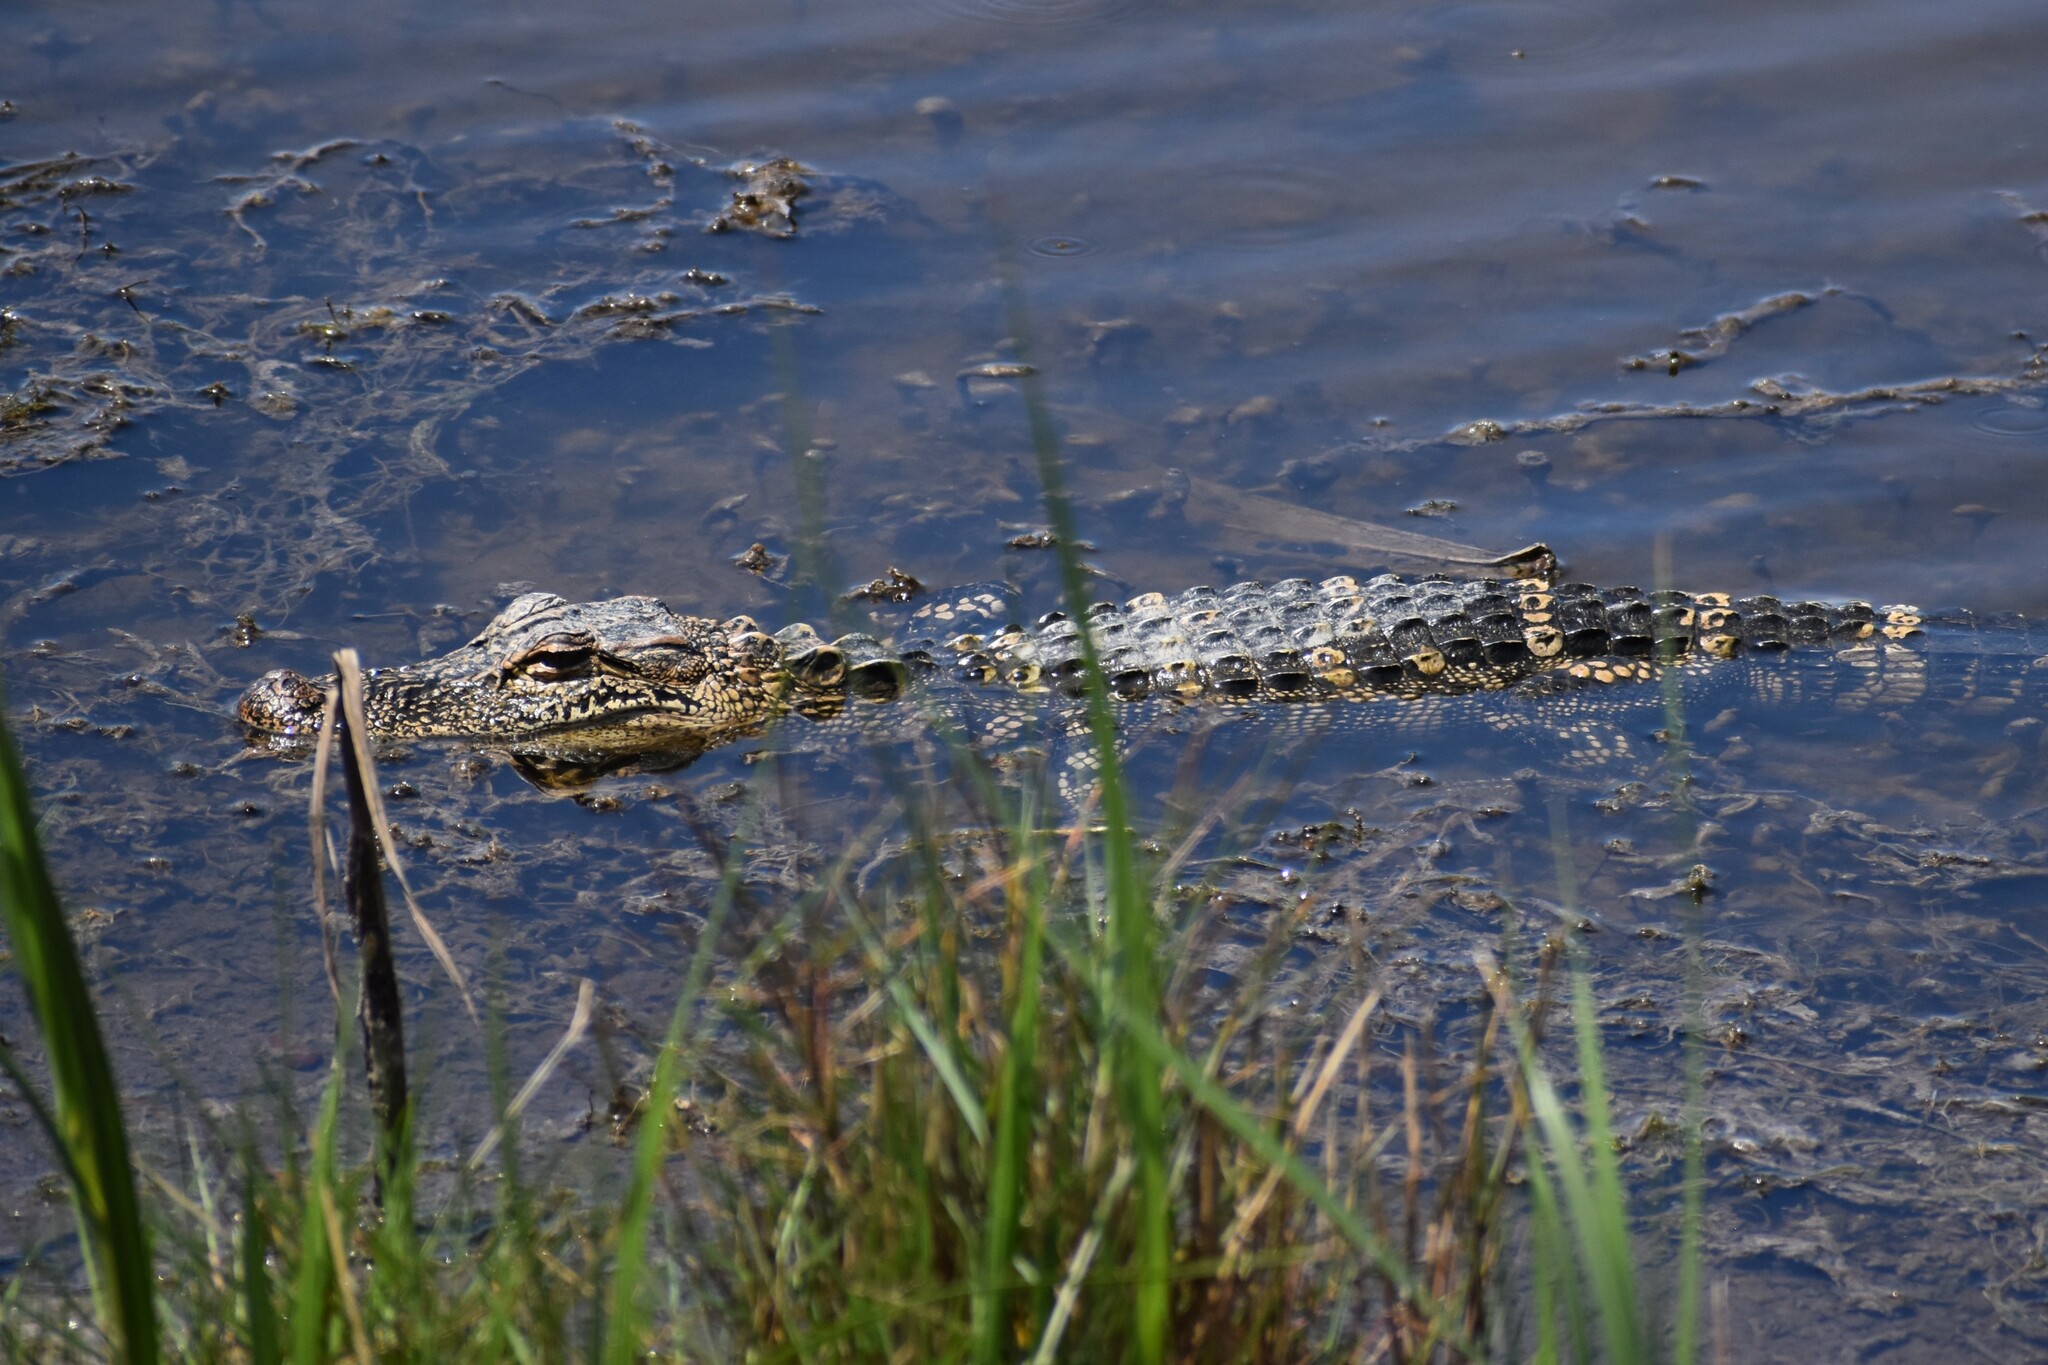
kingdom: Animalia
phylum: Chordata
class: Crocodylia
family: Alligatoridae
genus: Alligator
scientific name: Alligator mississippiensis
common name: American alligator
